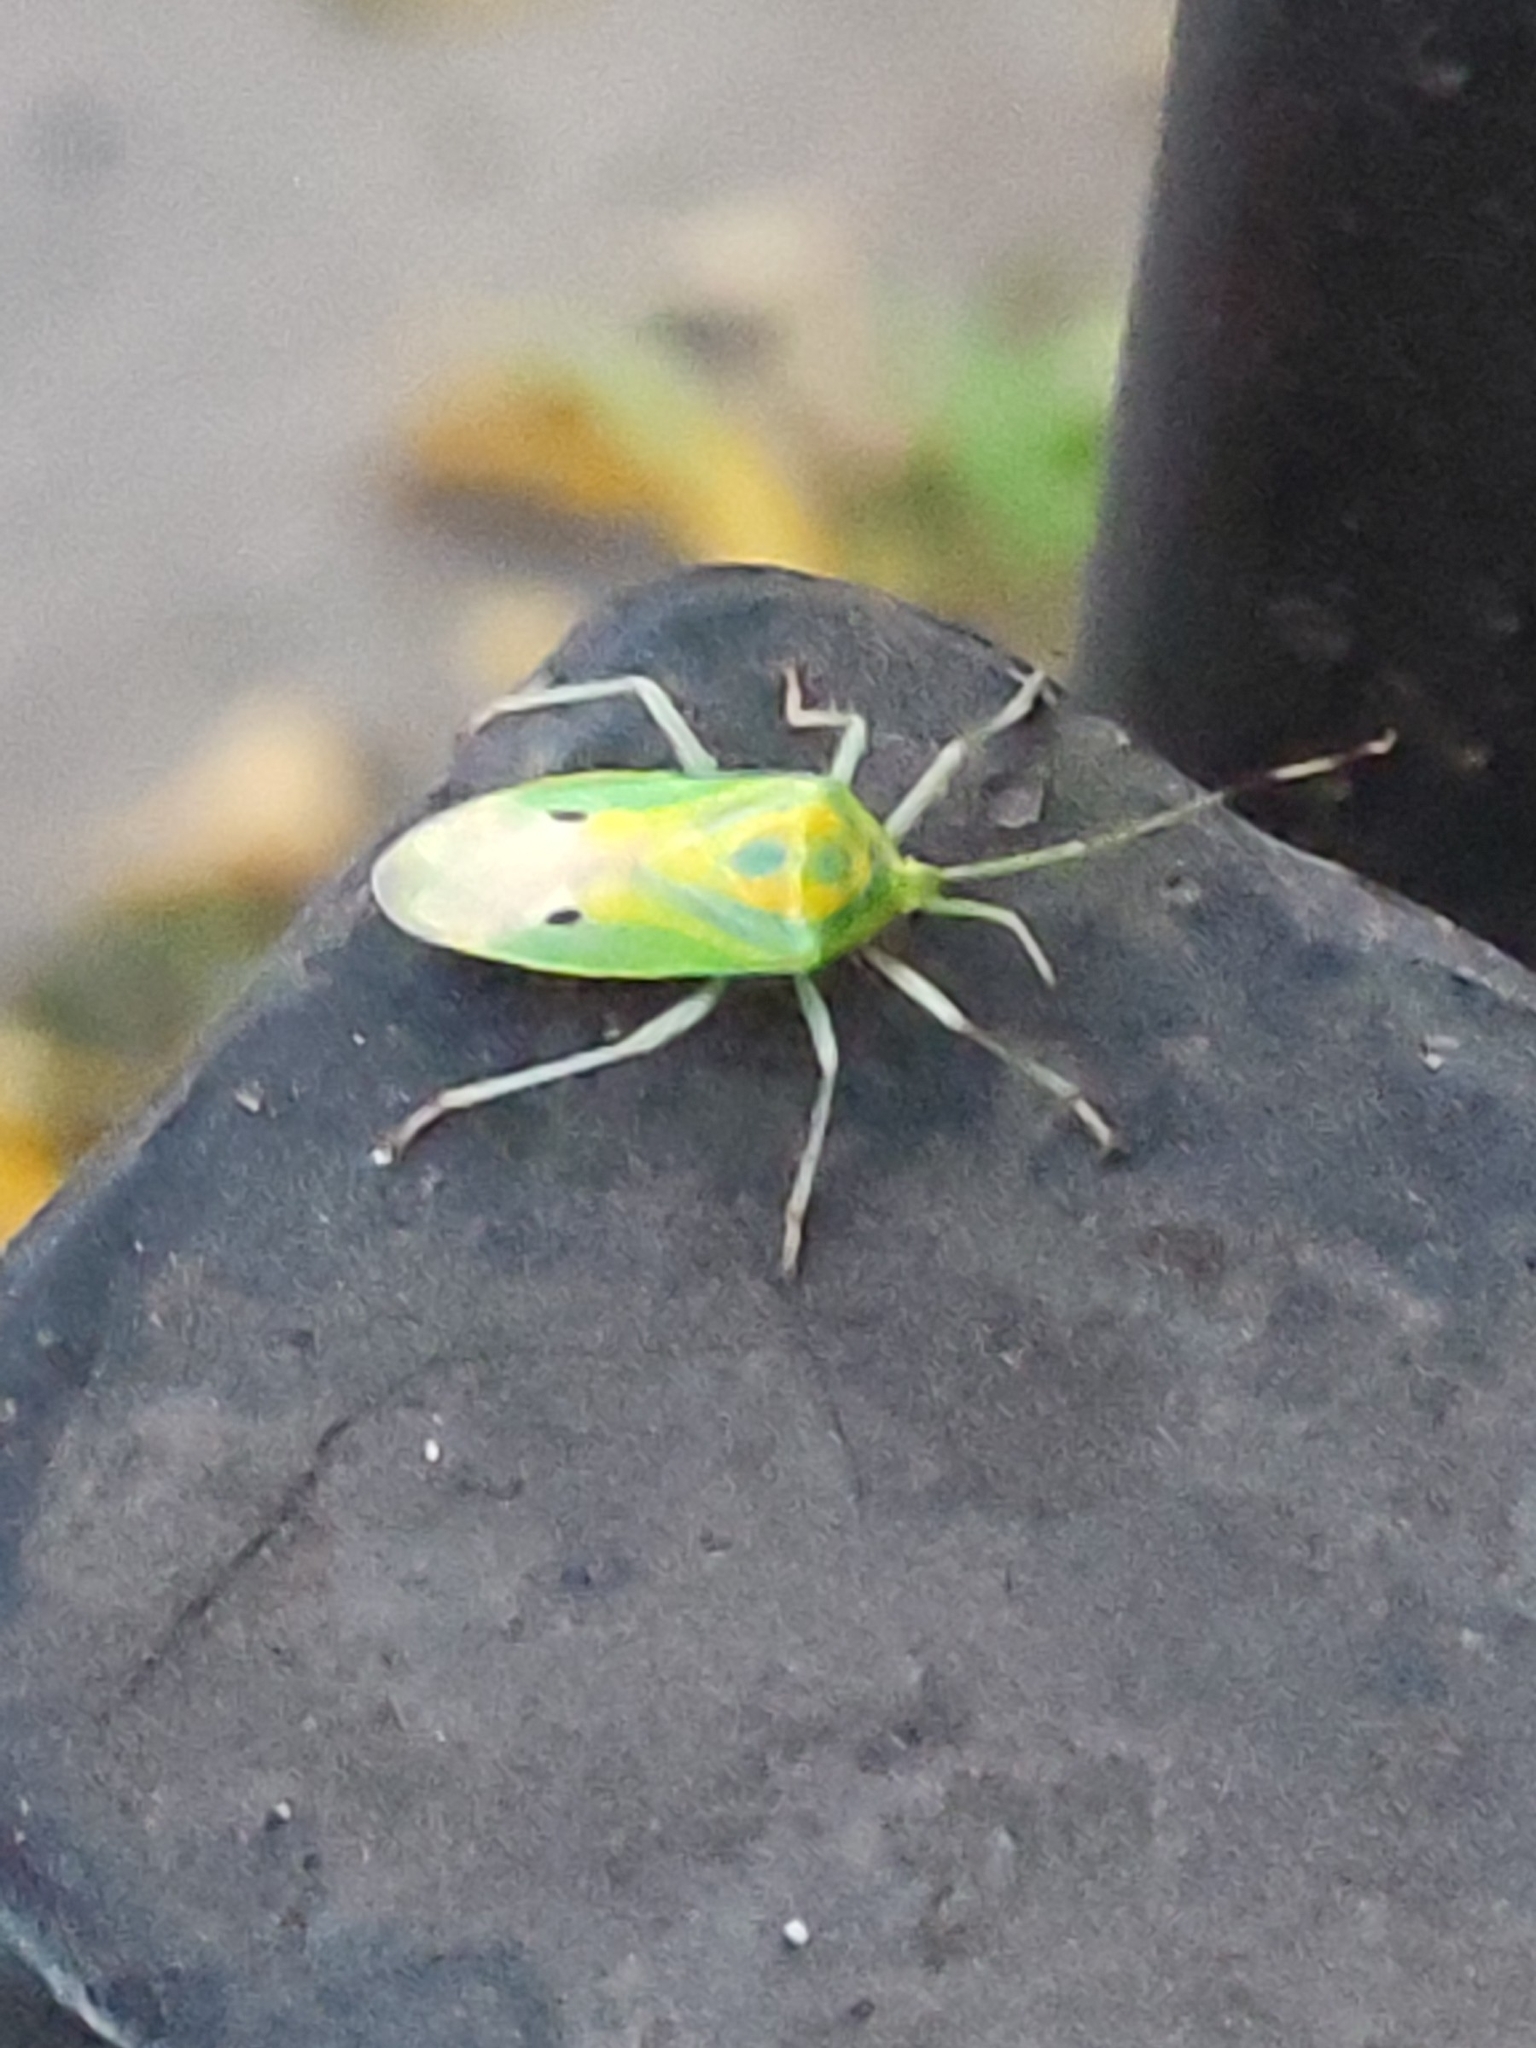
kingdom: Animalia
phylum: Arthropoda
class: Insecta
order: Hemiptera
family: Urostylididae
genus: Urolabida
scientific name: Urolabida
